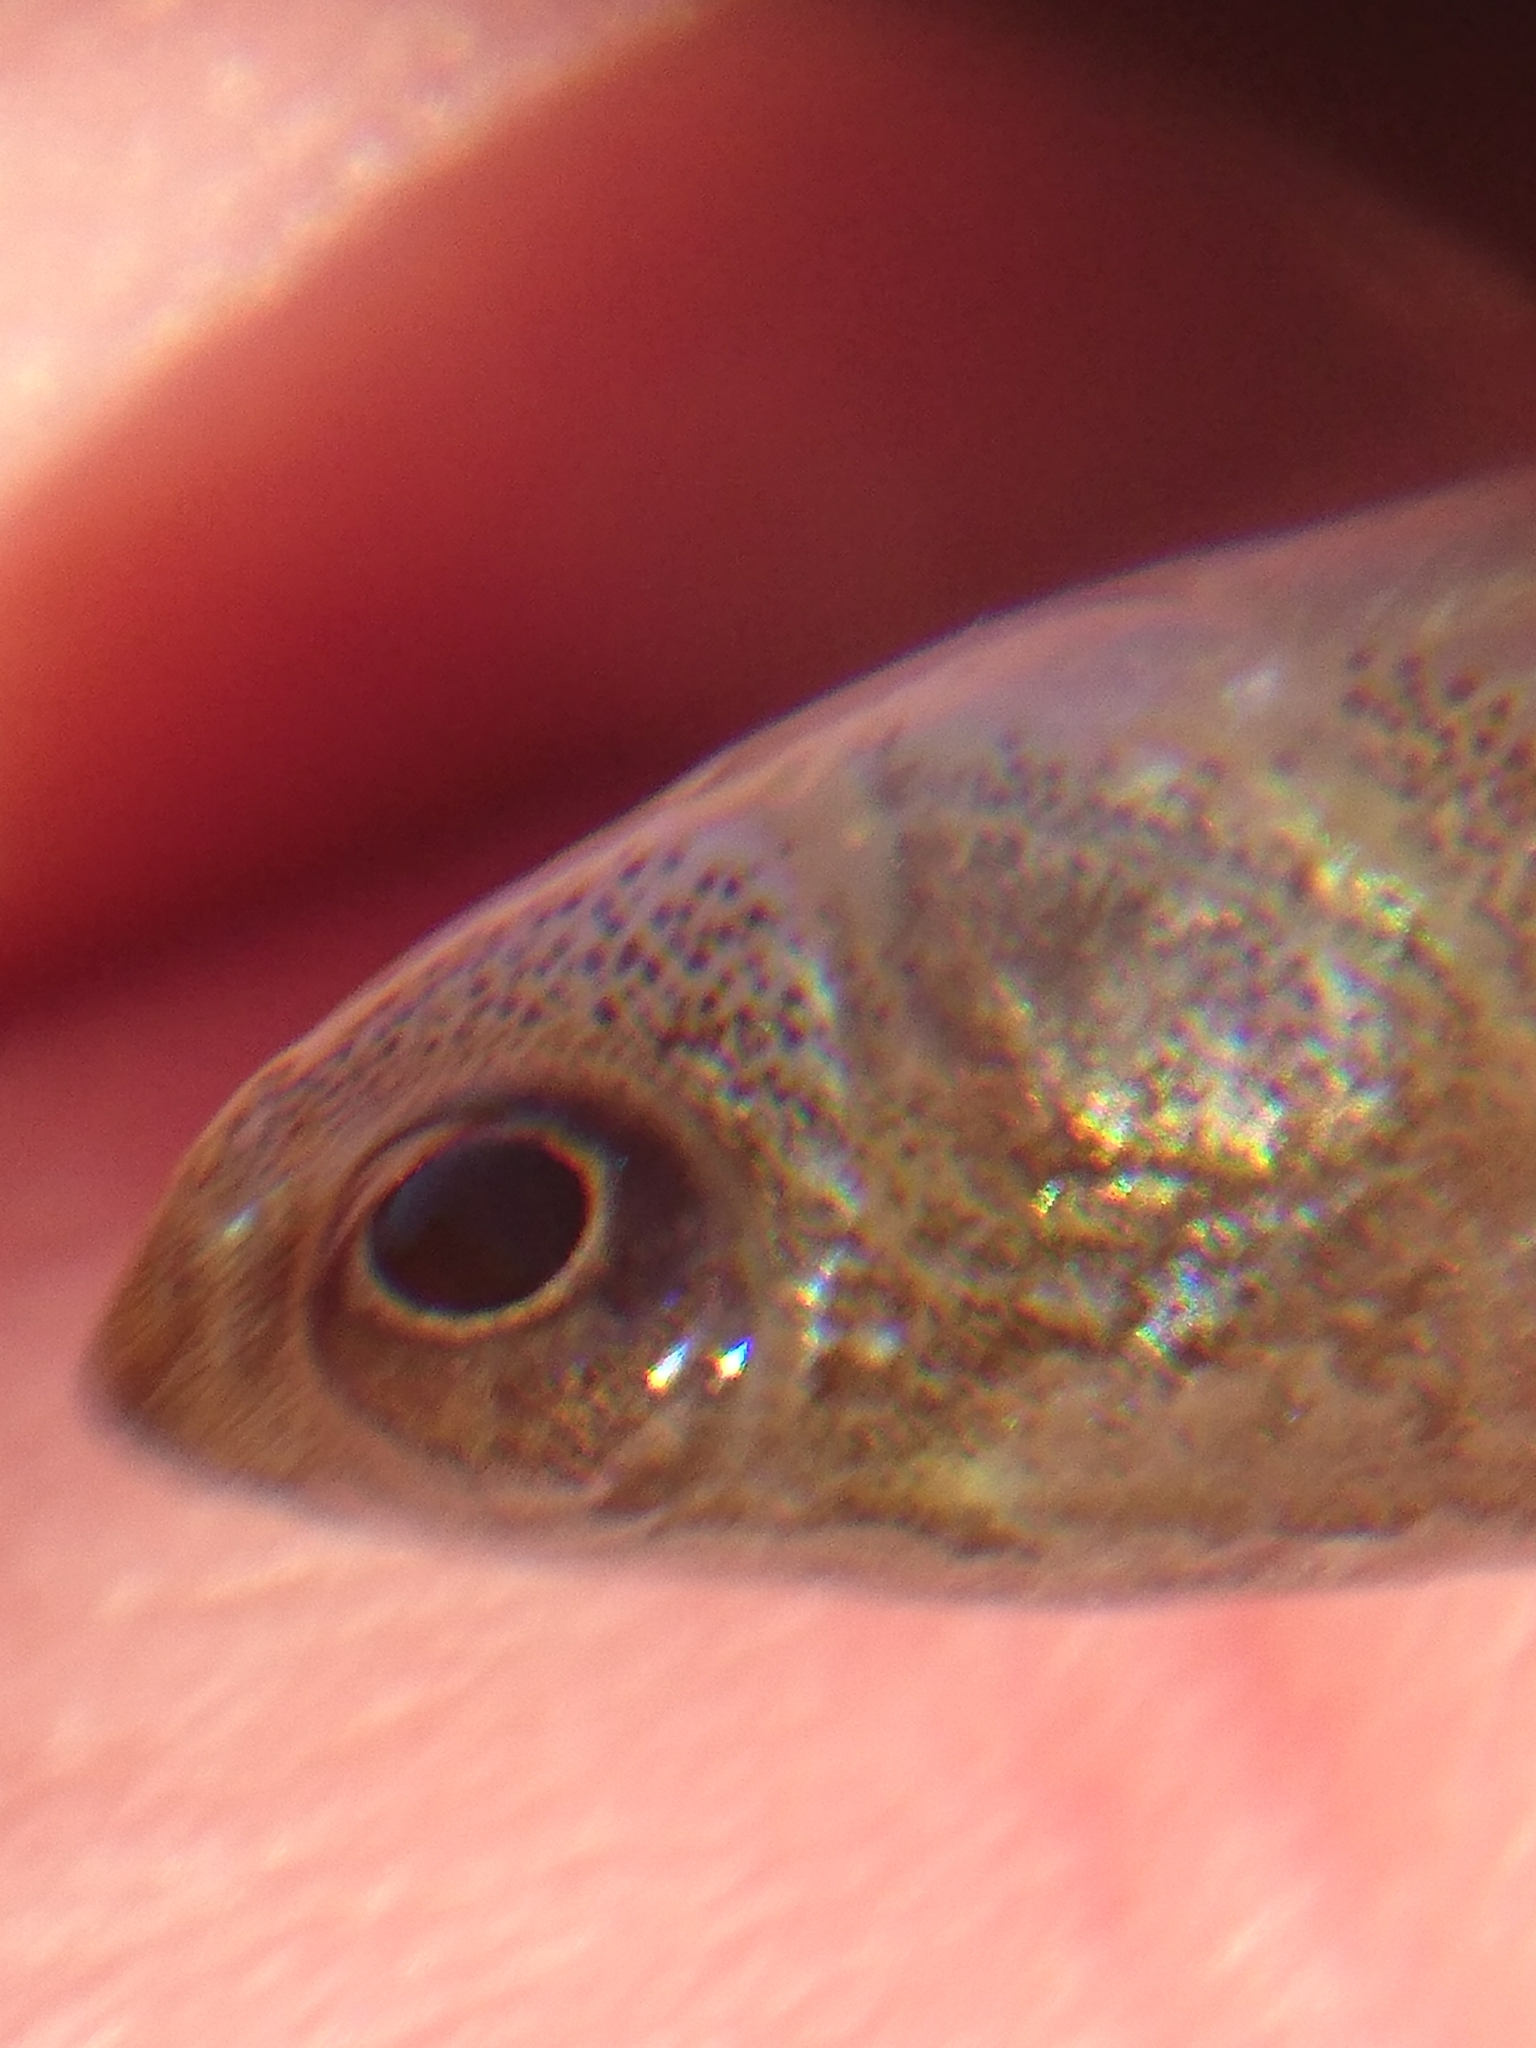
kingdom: Animalia
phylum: Chordata
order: Cyprinodontiformes
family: Fundulidae
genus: Fundulus
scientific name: Fundulus grandis
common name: Gulf killifish
